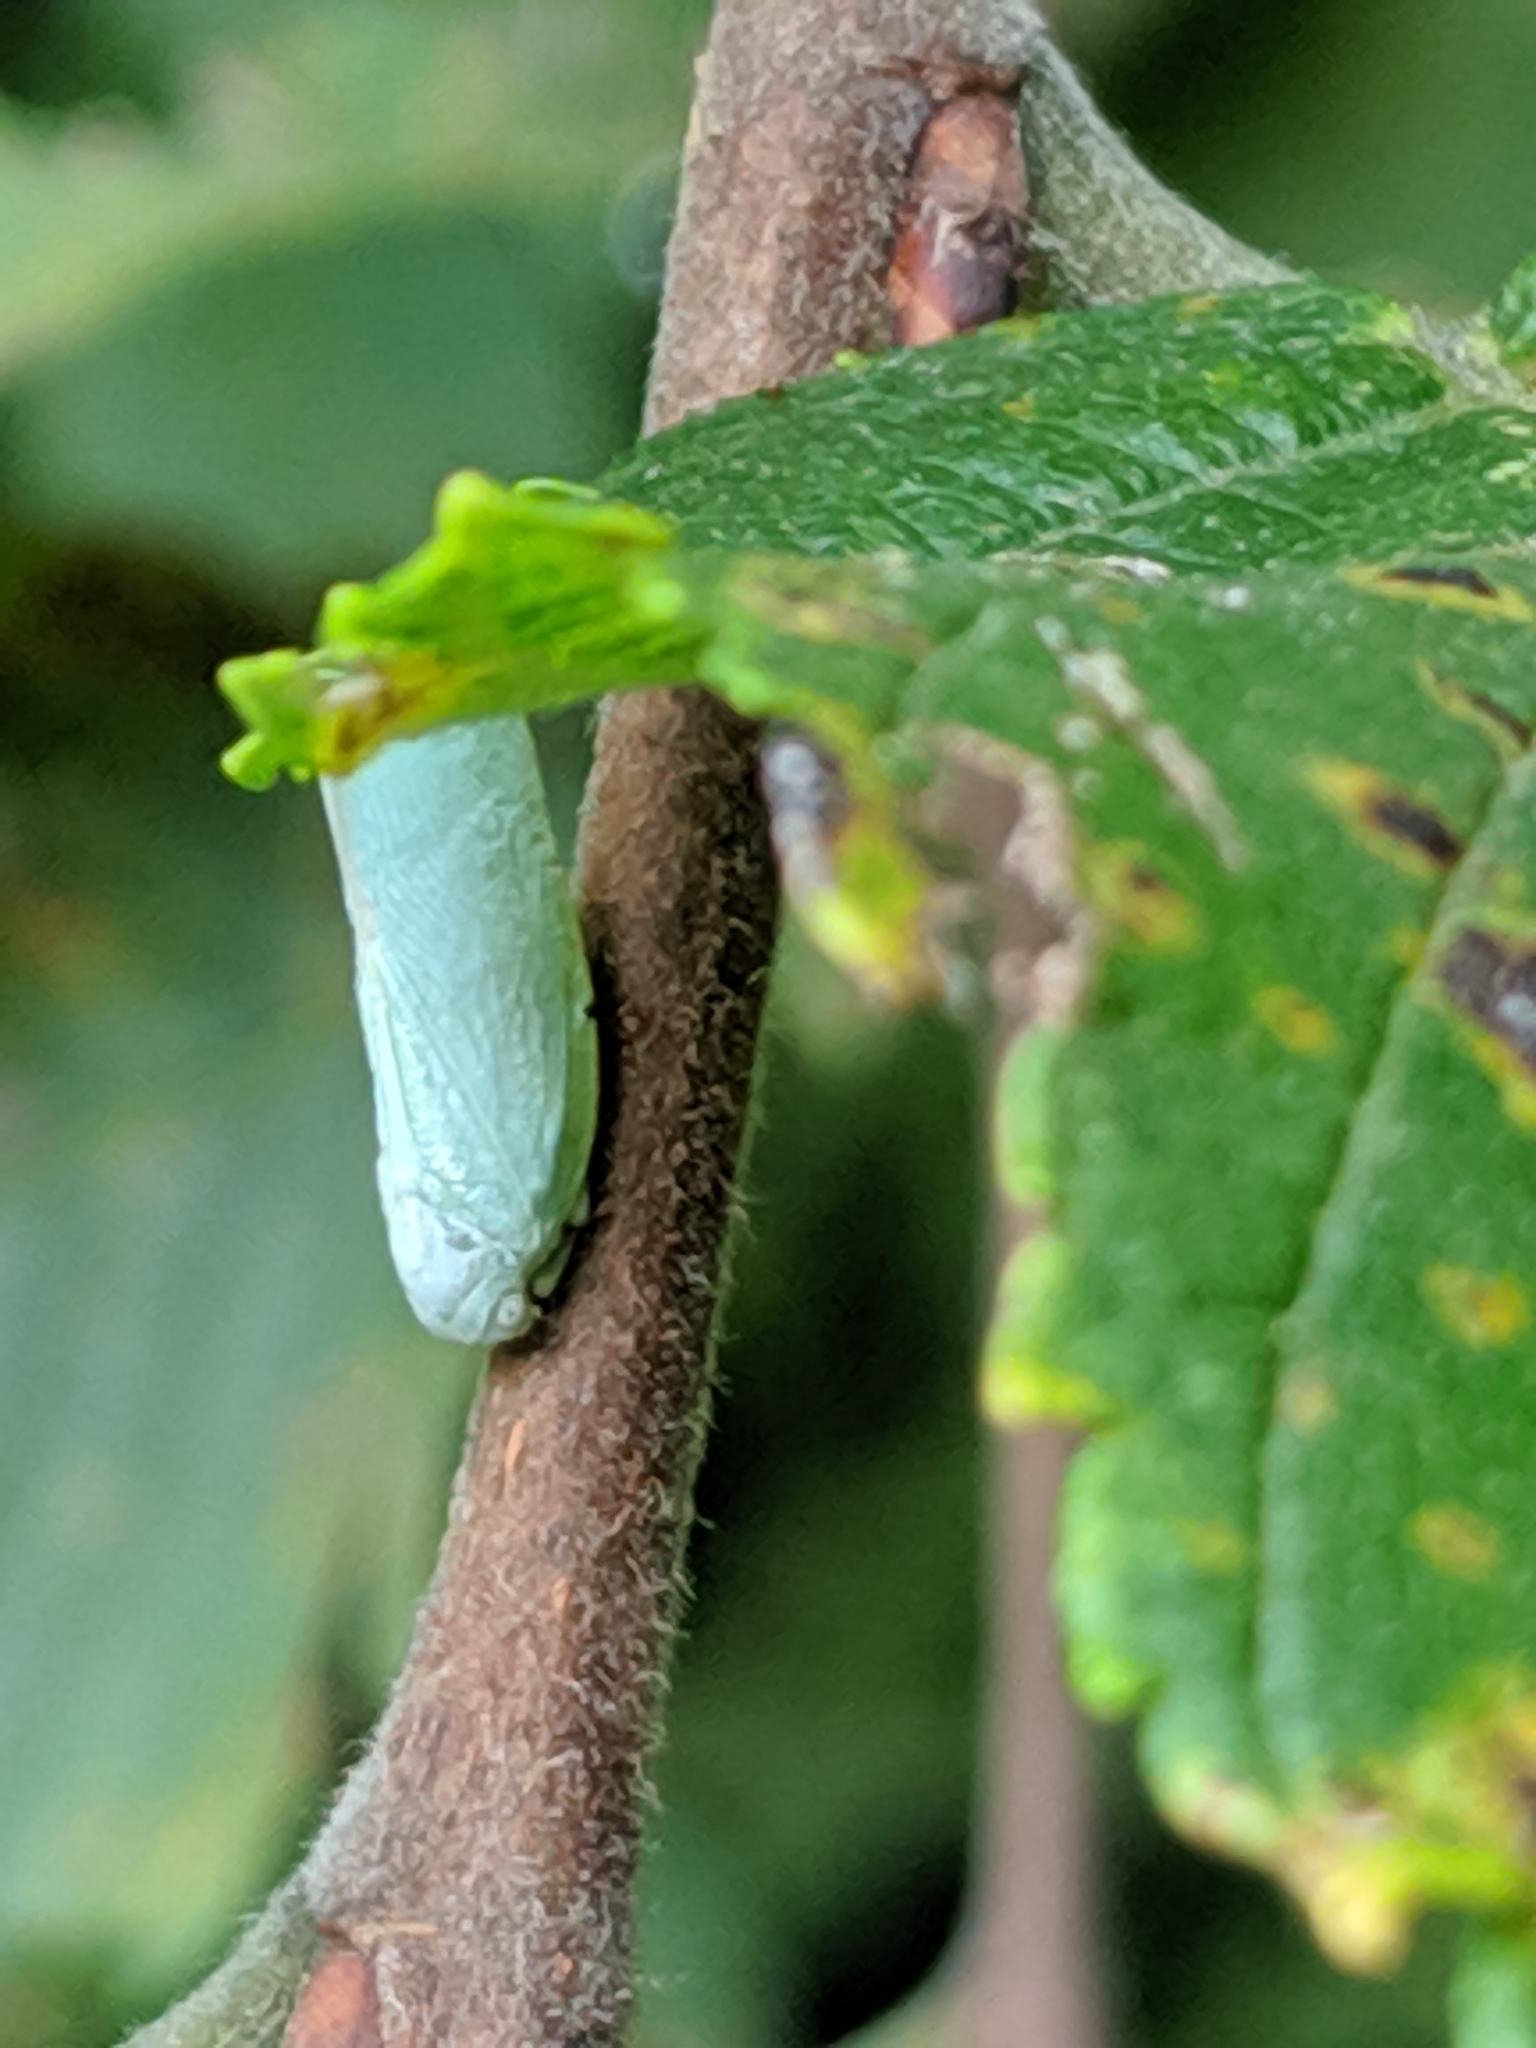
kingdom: Animalia
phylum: Arthropoda
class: Insecta
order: Hemiptera
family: Flatidae
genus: Flatormenis
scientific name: Flatormenis proxima
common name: Northern flatid planthopper
